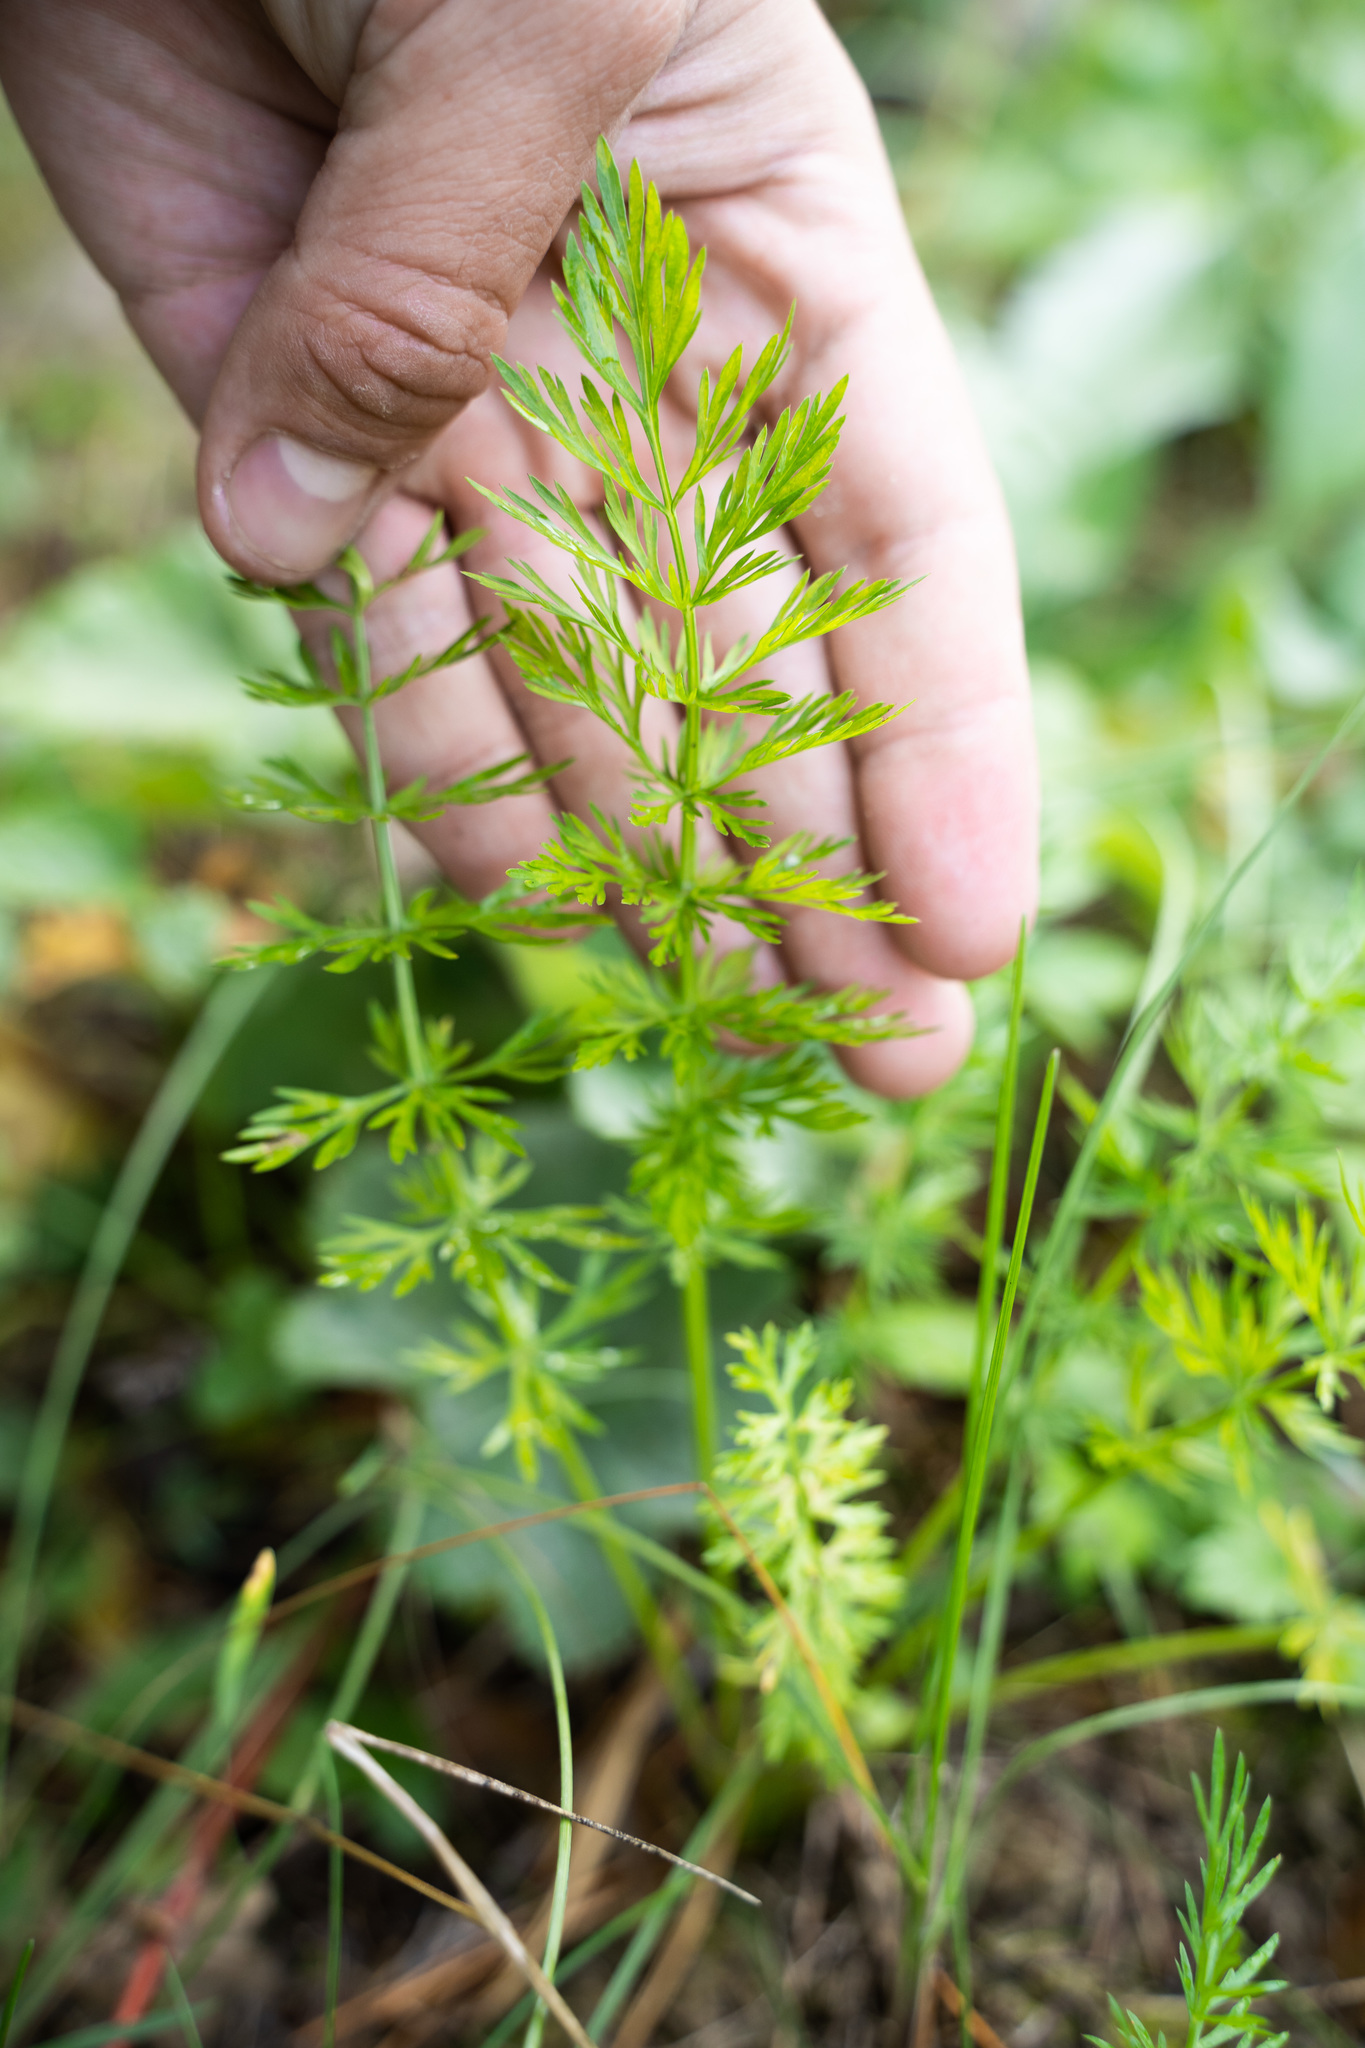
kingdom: Plantae
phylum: Tracheophyta
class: Magnoliopsida
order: Apiales
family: Apiaceae
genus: Carum
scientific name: Carum carvi
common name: Caraway
